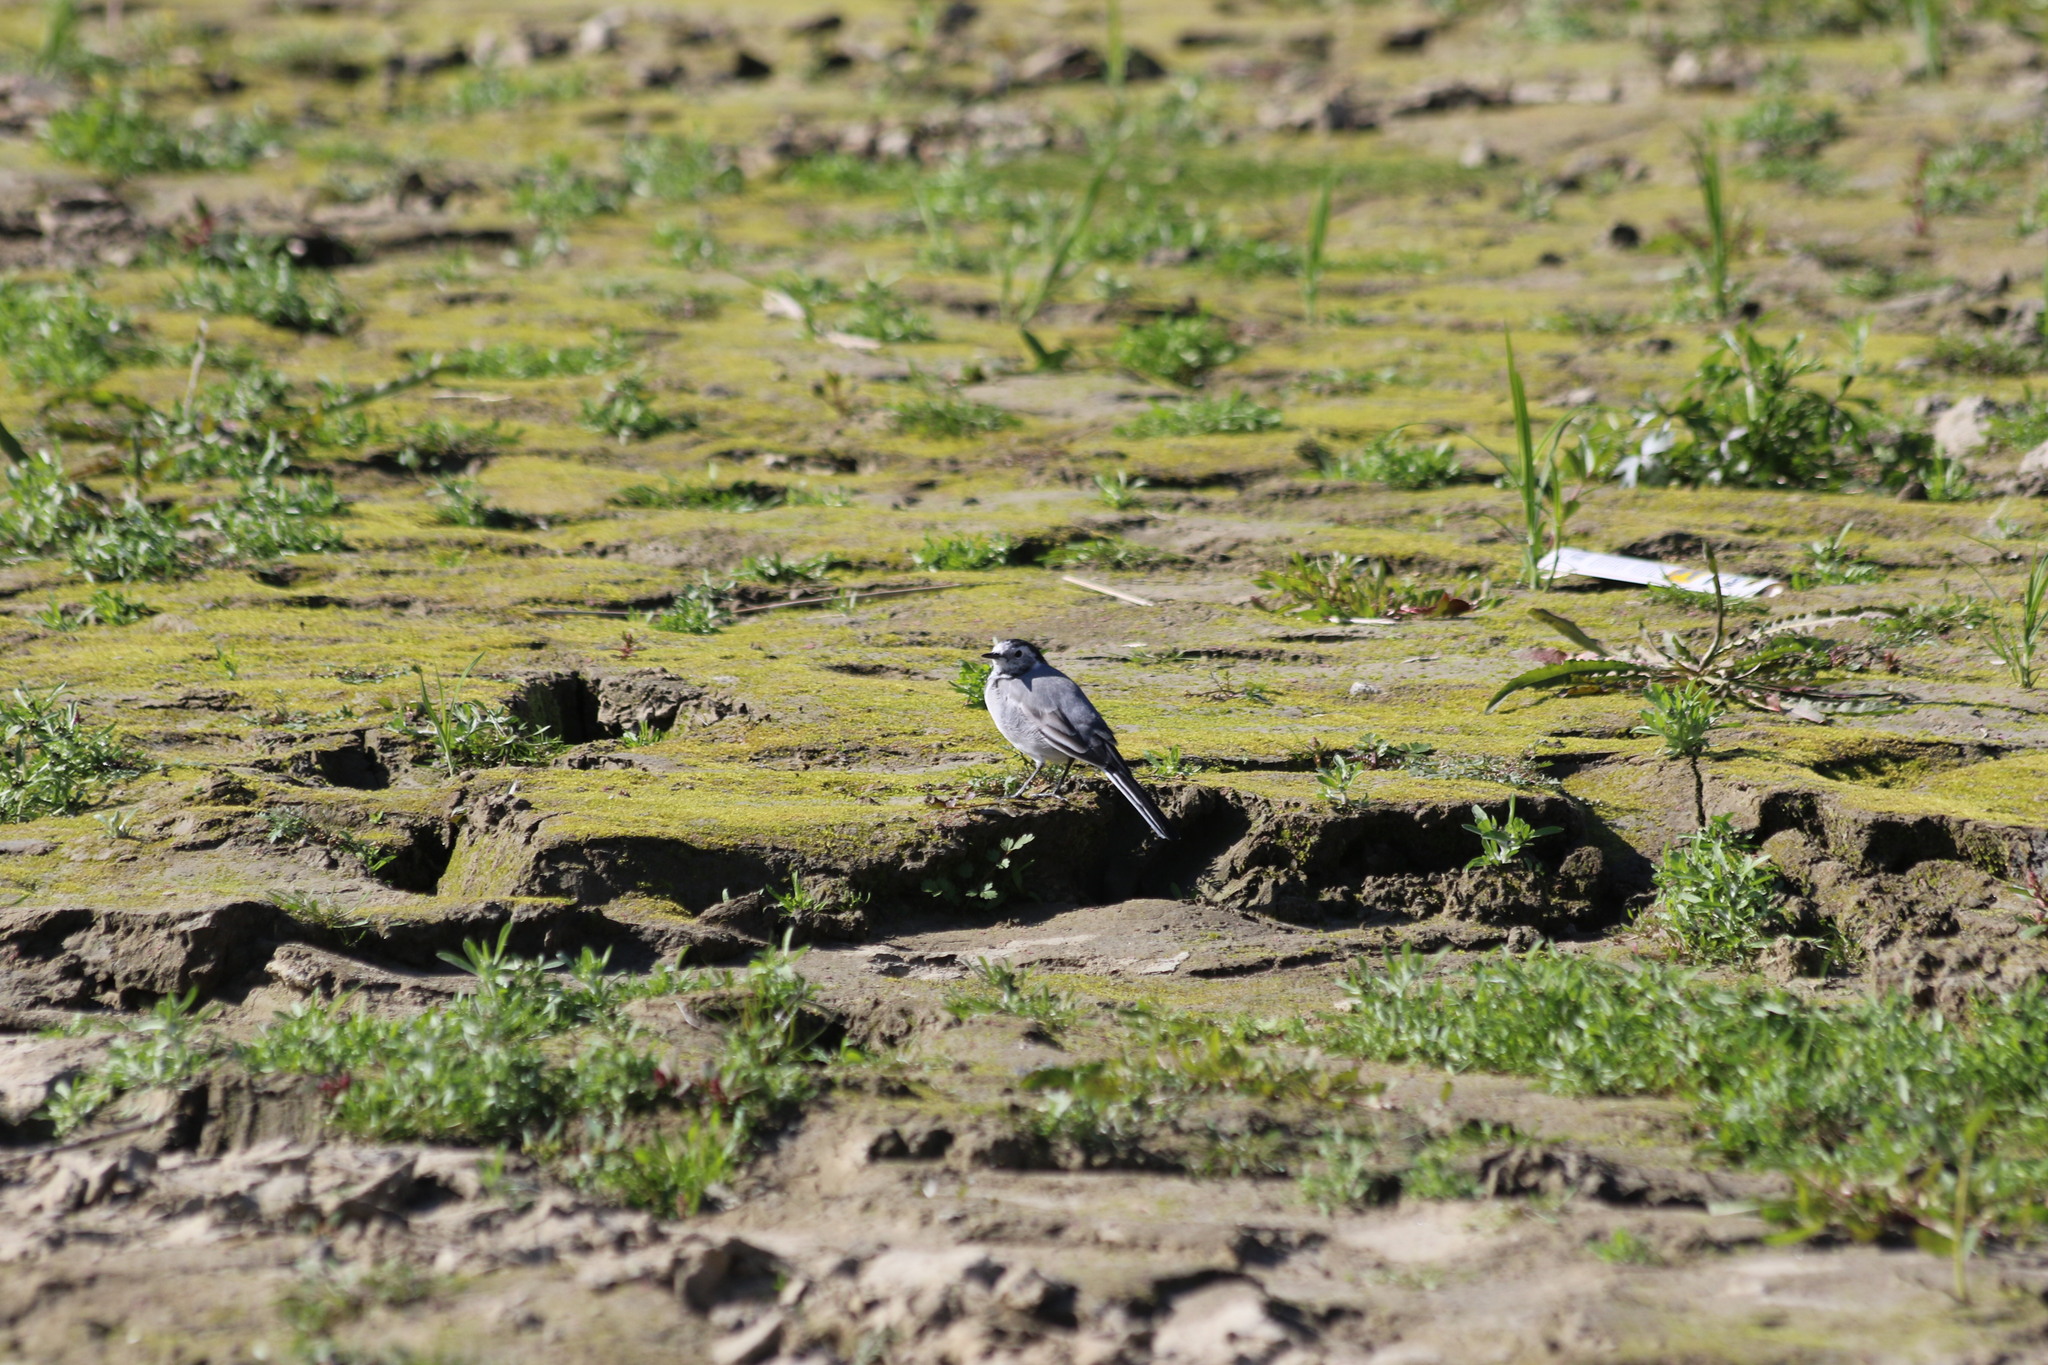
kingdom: Animalia
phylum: Chordata
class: Aves
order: Passeriformes
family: Motacillidae
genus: Motacilla
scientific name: Motacilla alba
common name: White wagtail
